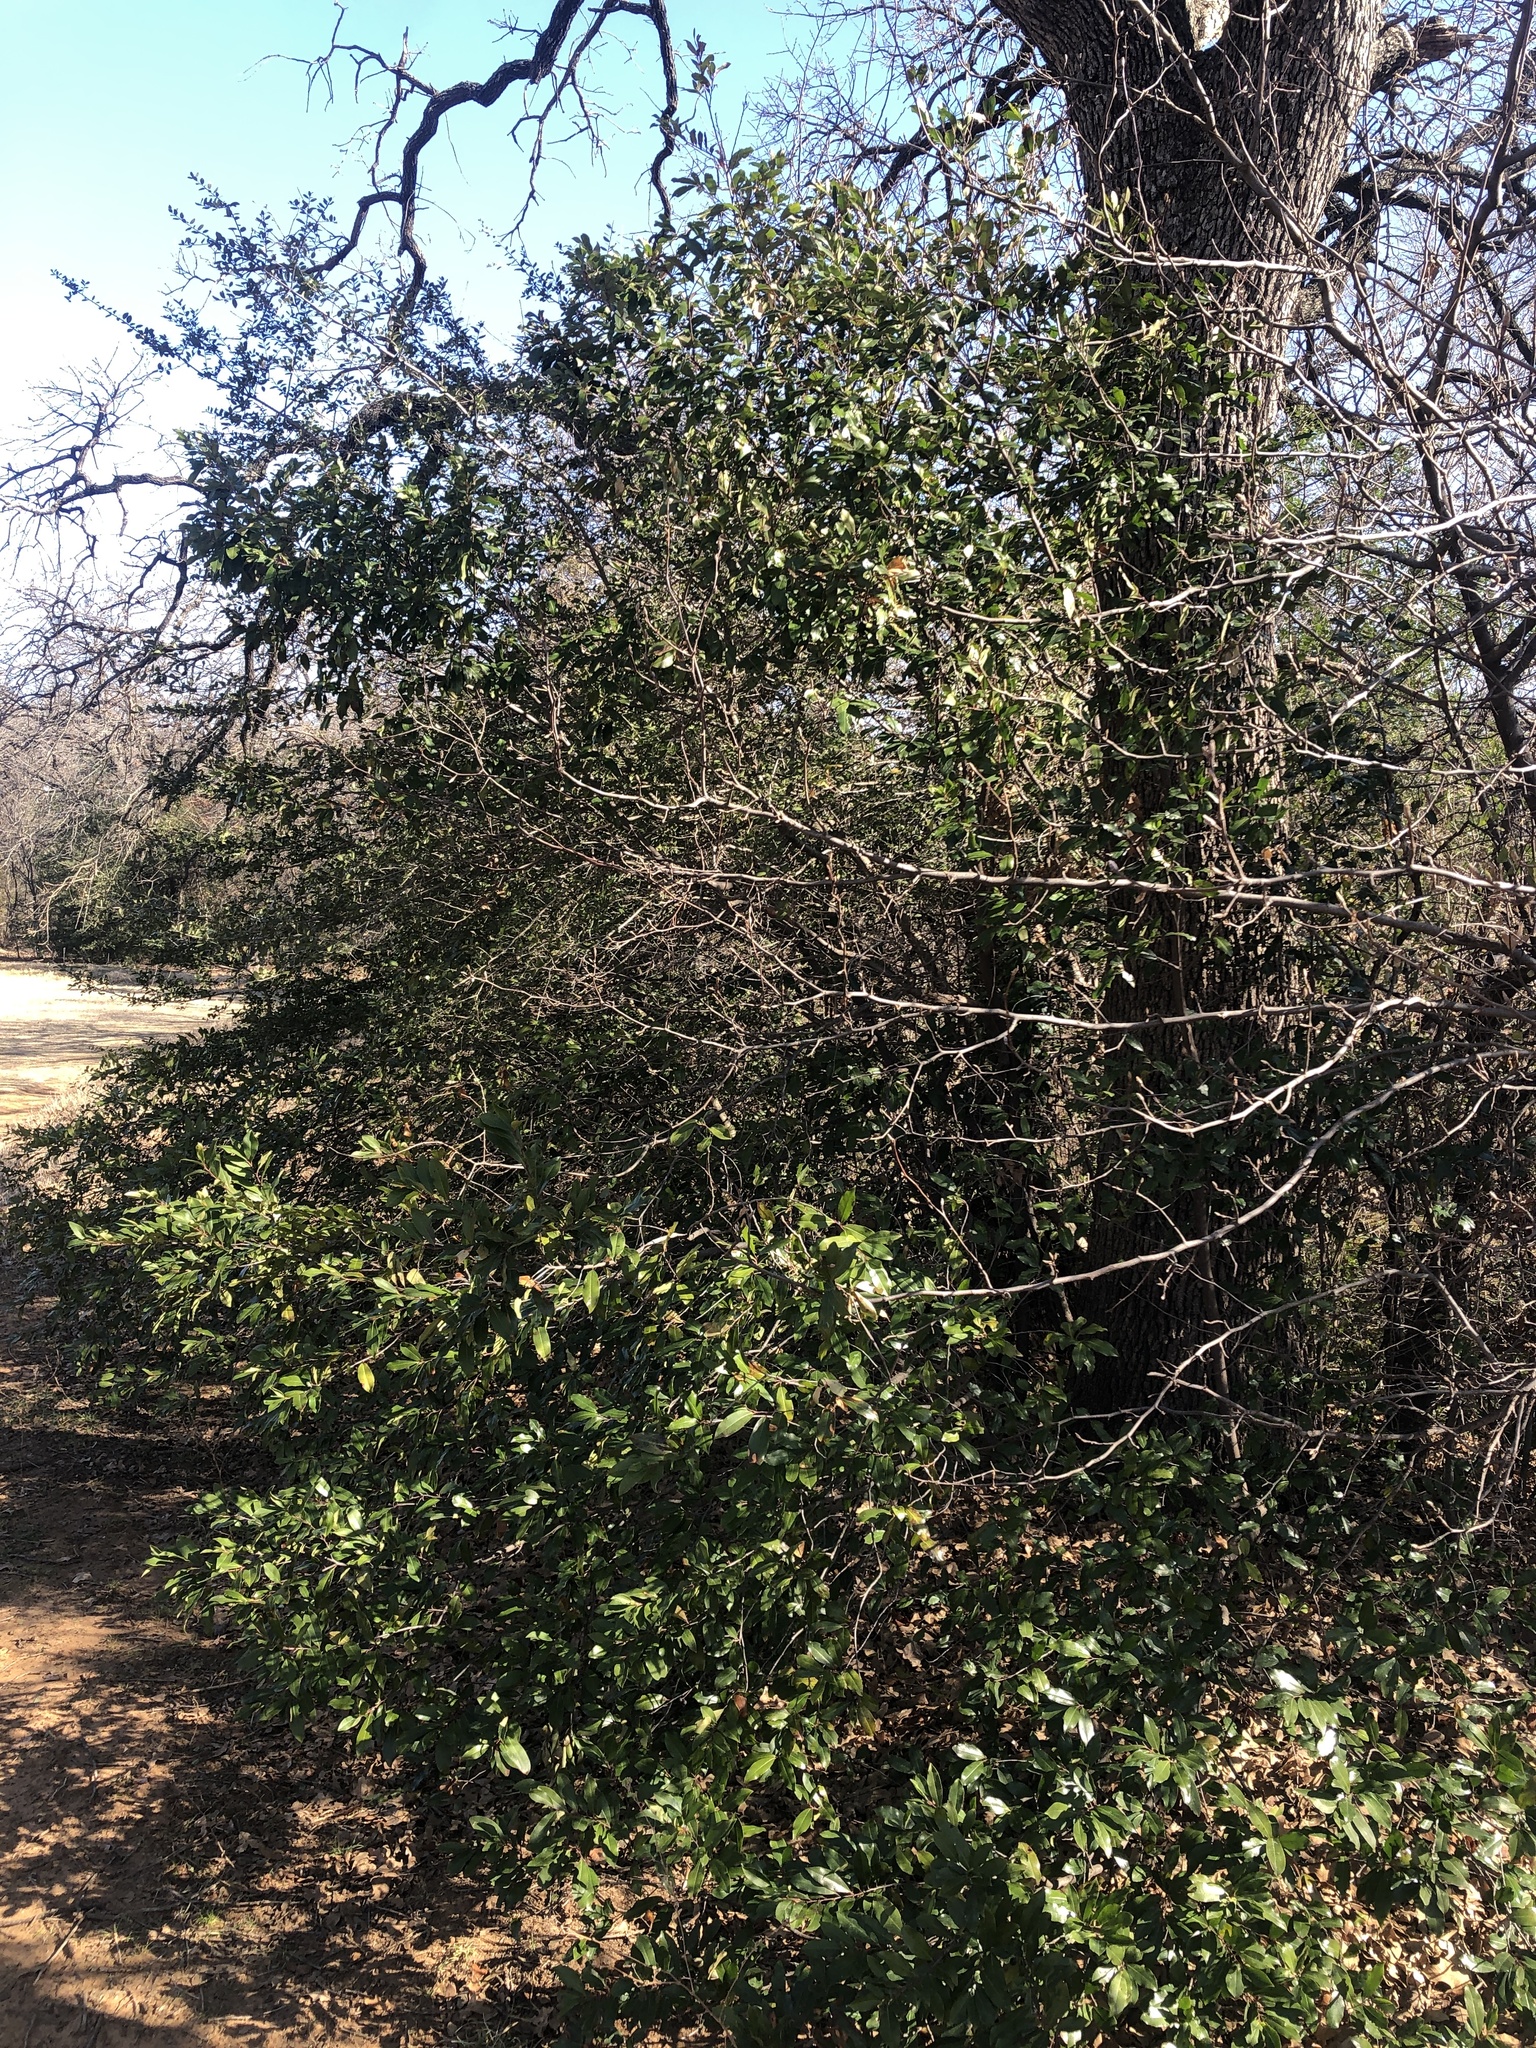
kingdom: Plantae
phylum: Tracheophyta
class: Magnoliopsida
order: Rosales
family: Rosaceae
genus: Prunus
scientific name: Prunus caroliniana
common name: Carolina laurel cherry
